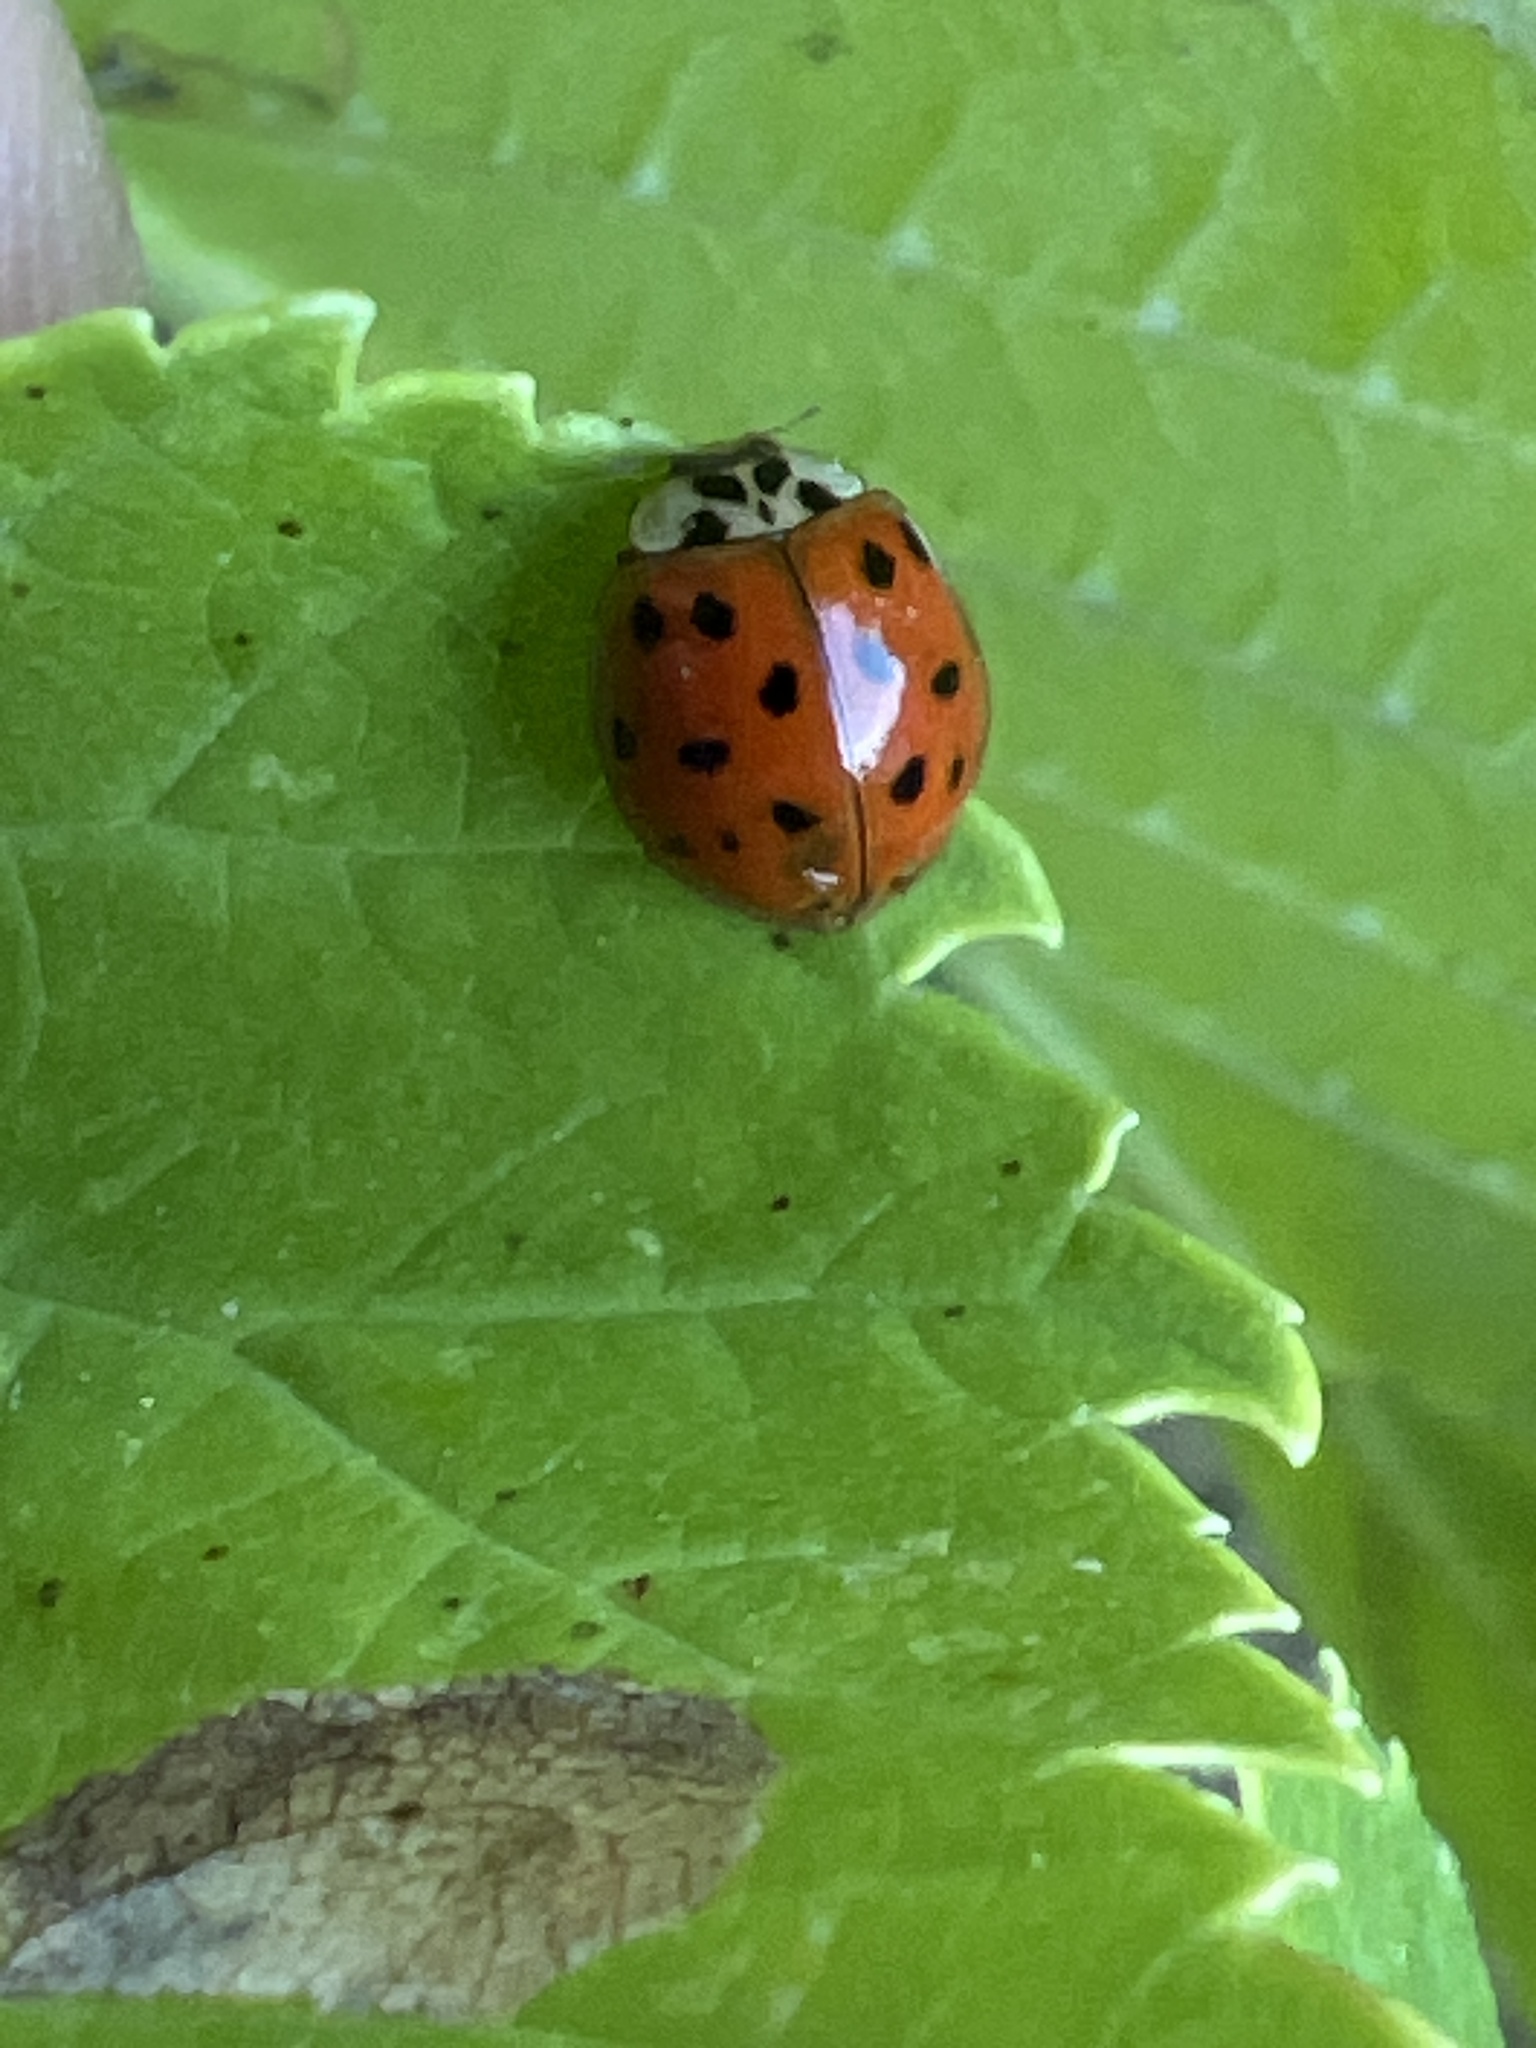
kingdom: Animalia
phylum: Arthropoda
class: Insecta
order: Coleoptera
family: Coccinellidae
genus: Harmonia
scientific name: Harmonia axyridis
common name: Harlequin ladybird
